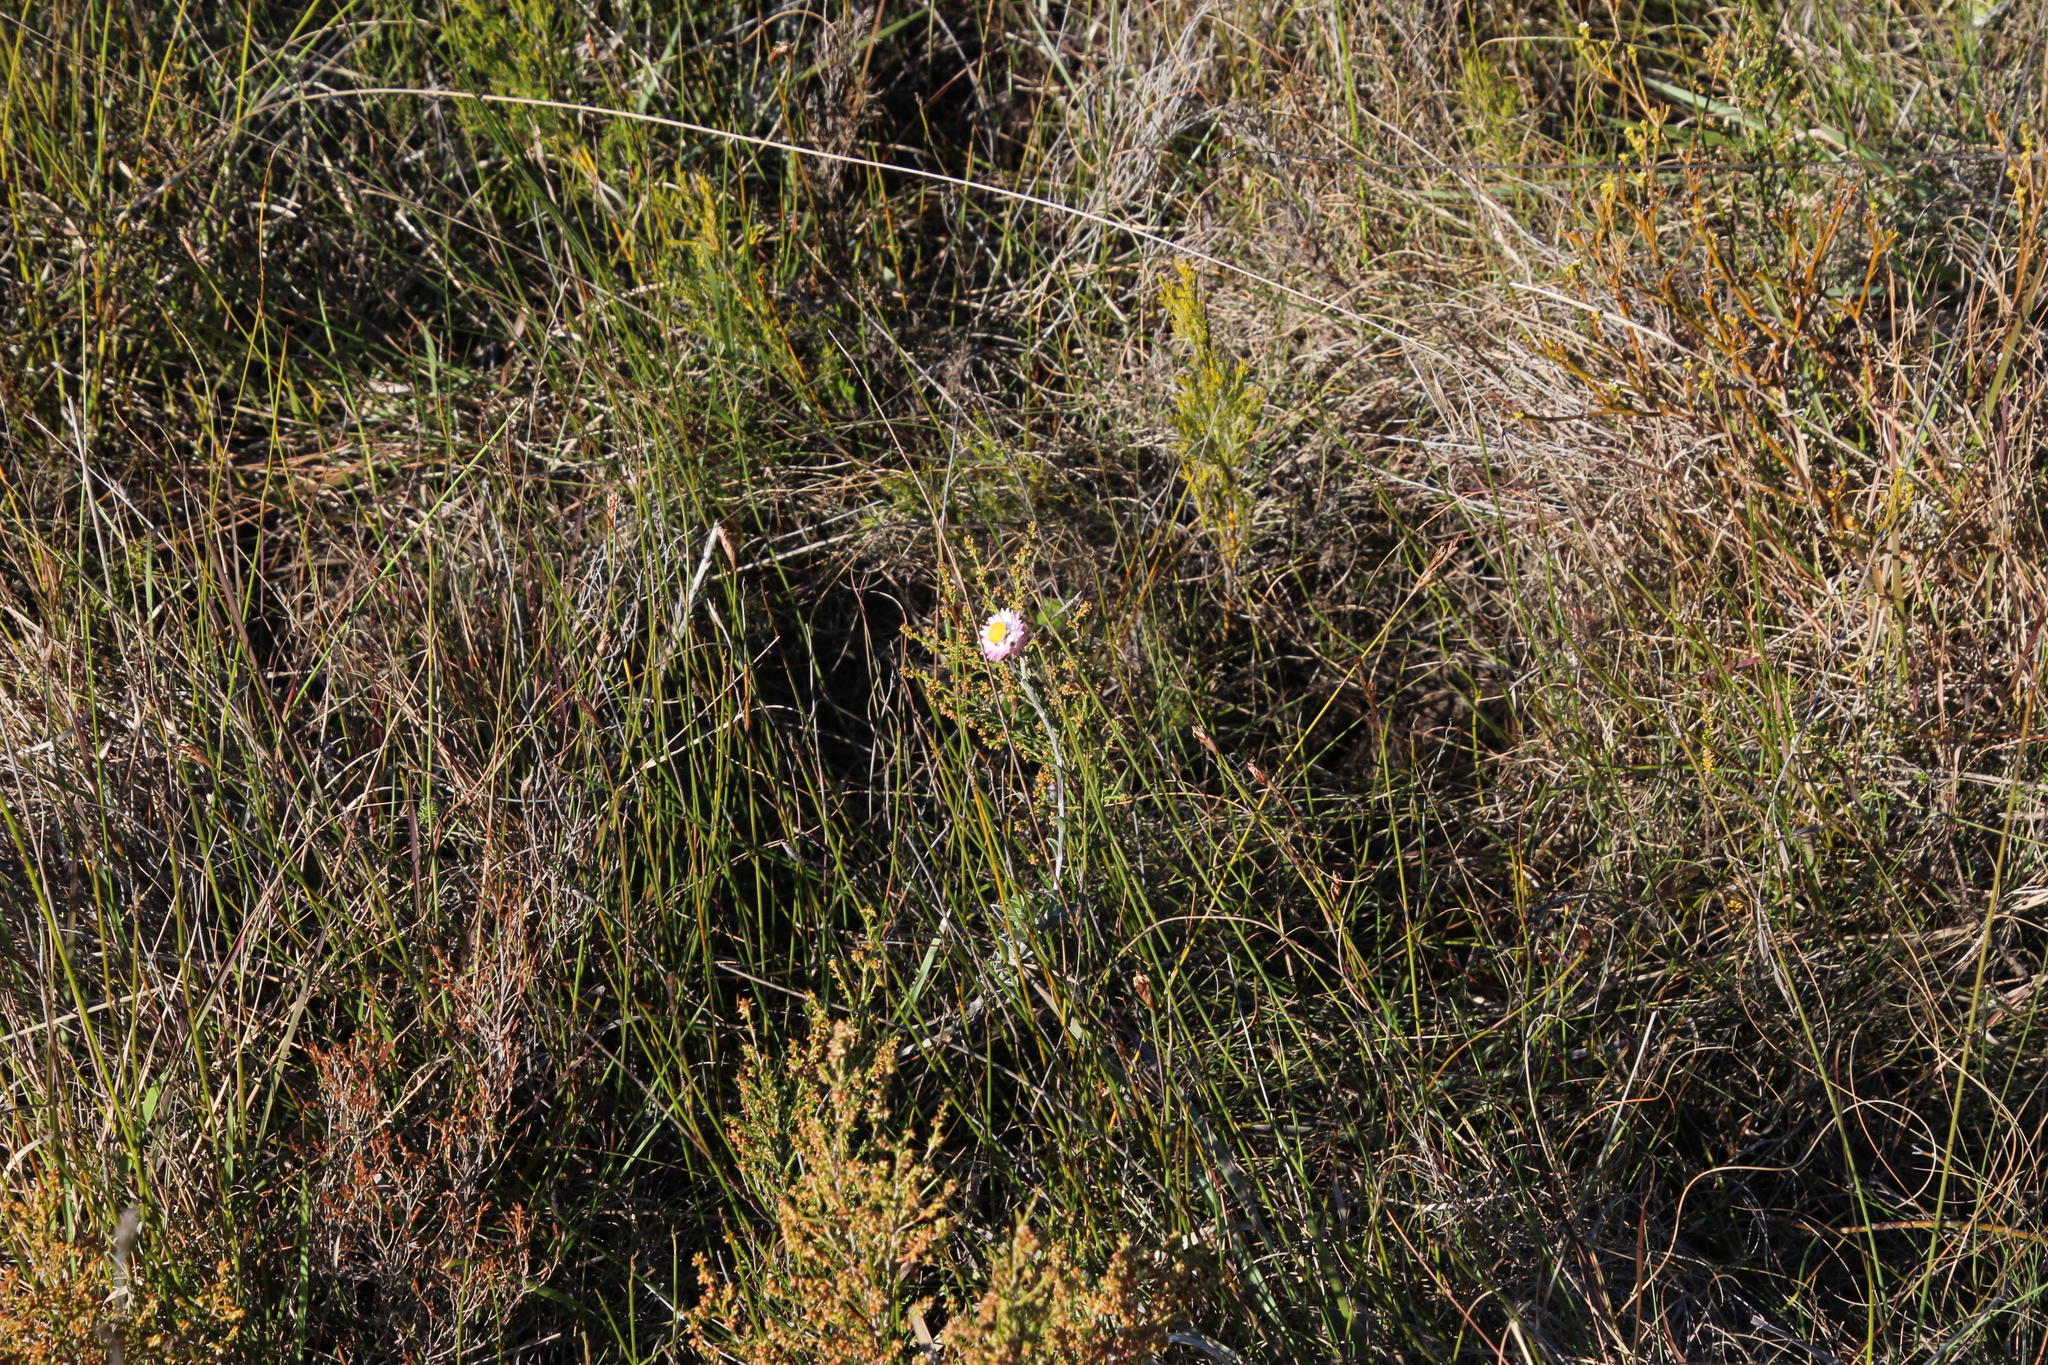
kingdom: Plantae
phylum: Tracheophyta
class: Magnoliopsida
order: Asterales
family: Asteraceae
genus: Achyranthemum
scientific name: Achyranthemum affine
